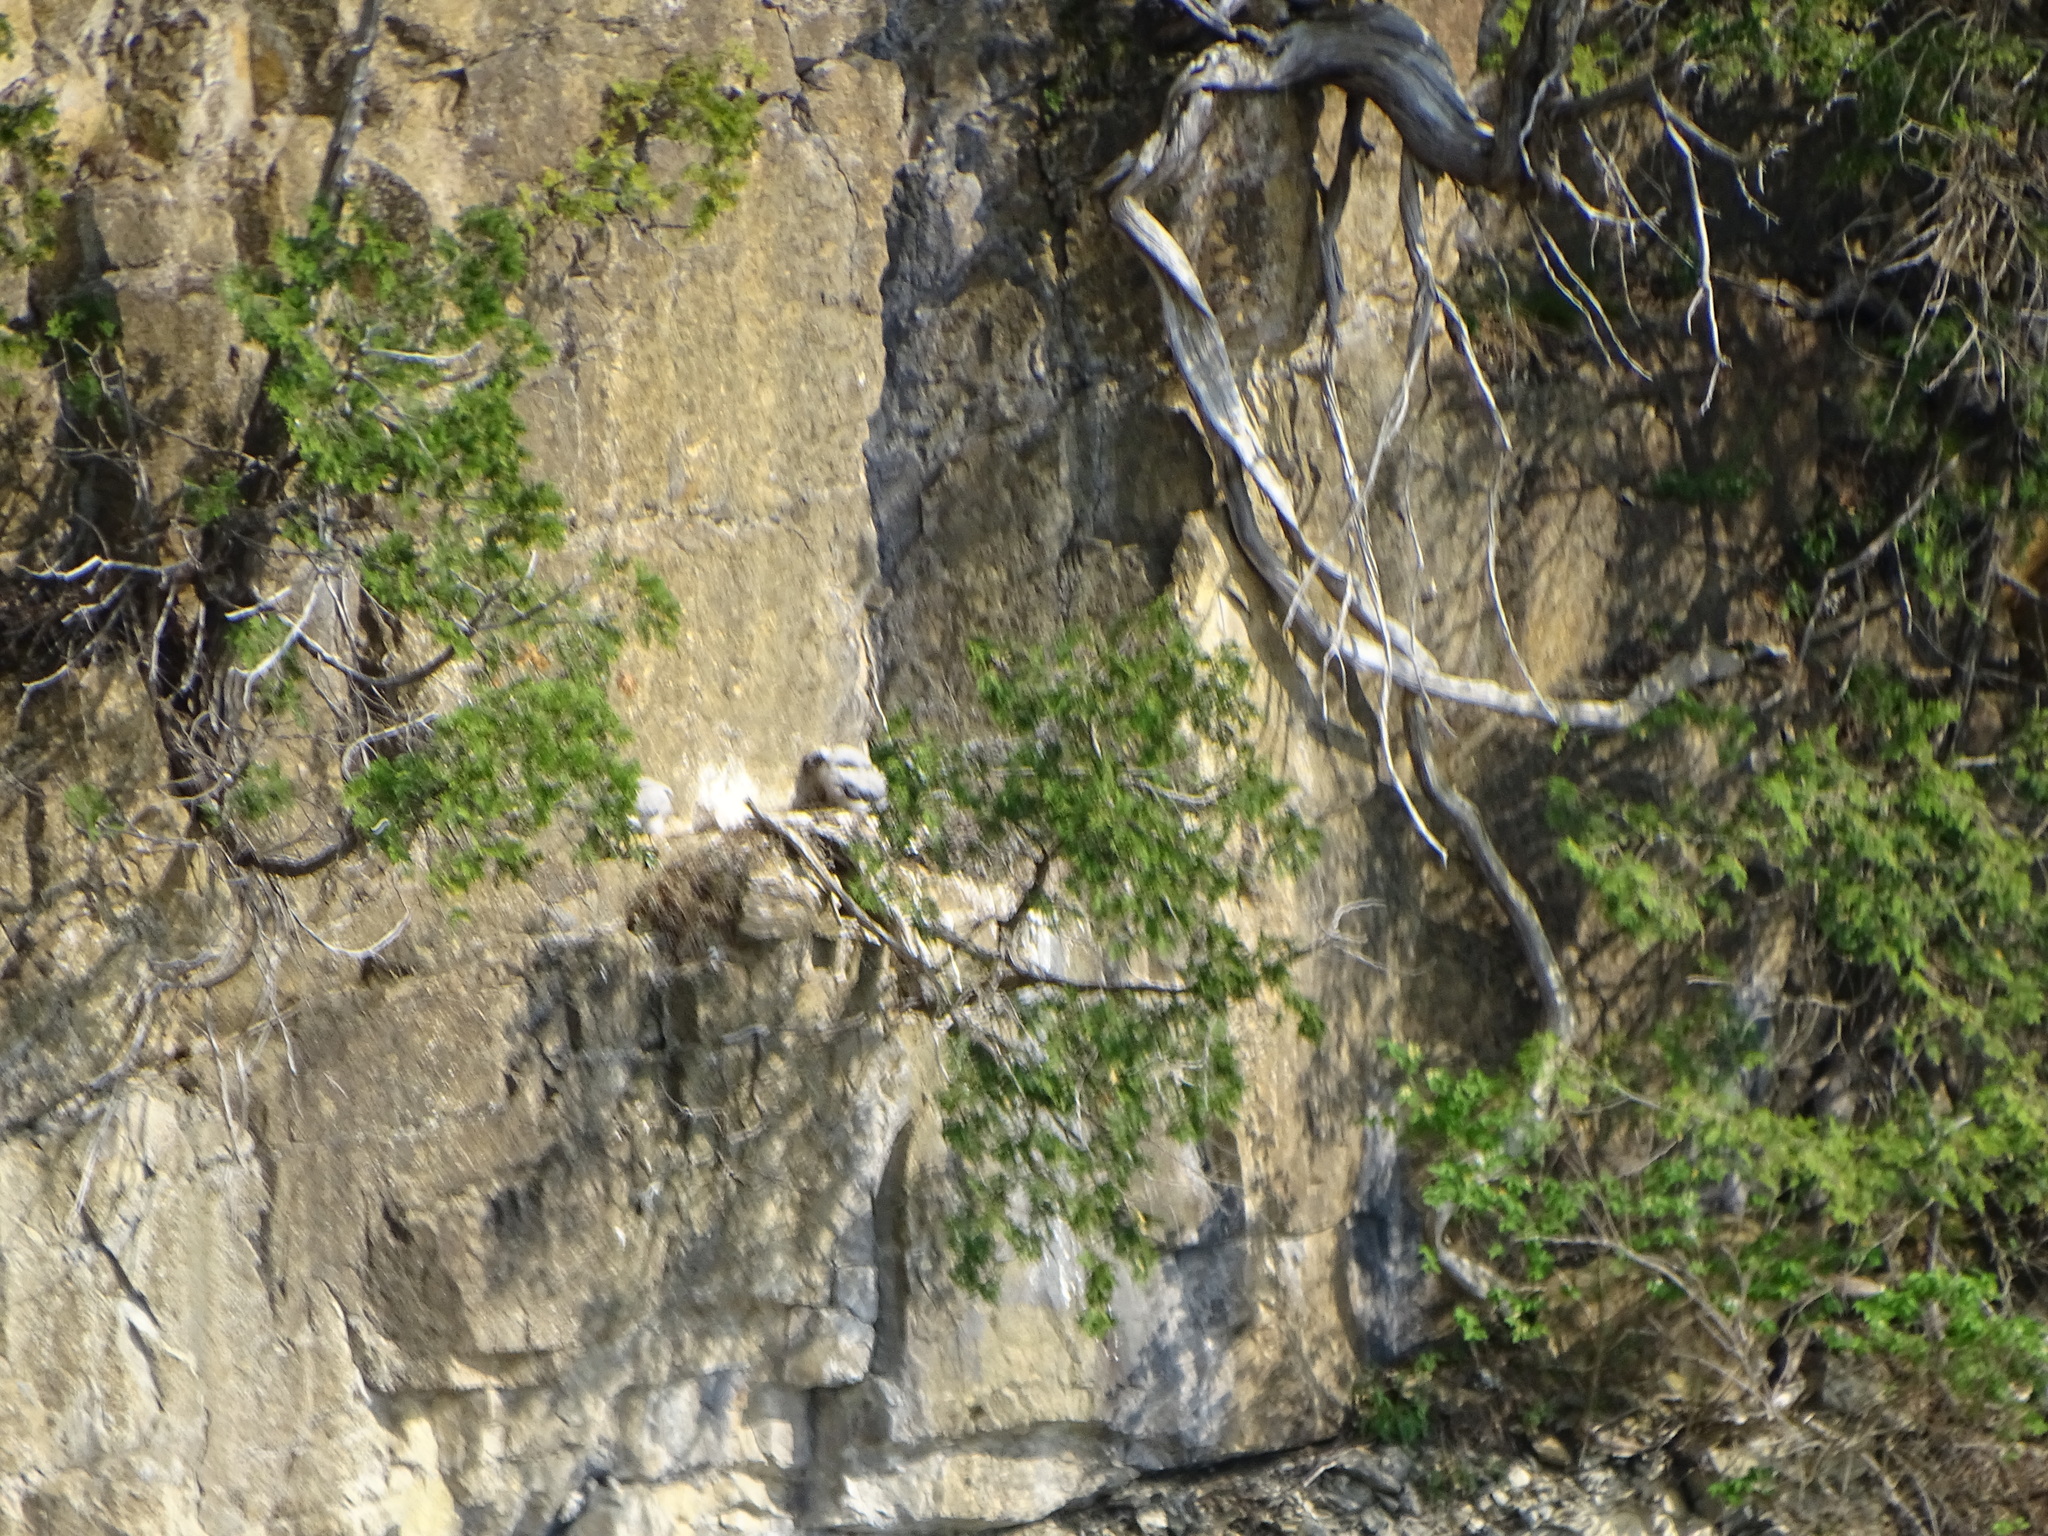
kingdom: Animalia
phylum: Chordata
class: Aves
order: Falconiformes
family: Falconidae
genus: Falco
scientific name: Falco peregrinus
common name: Peregrine falcon
